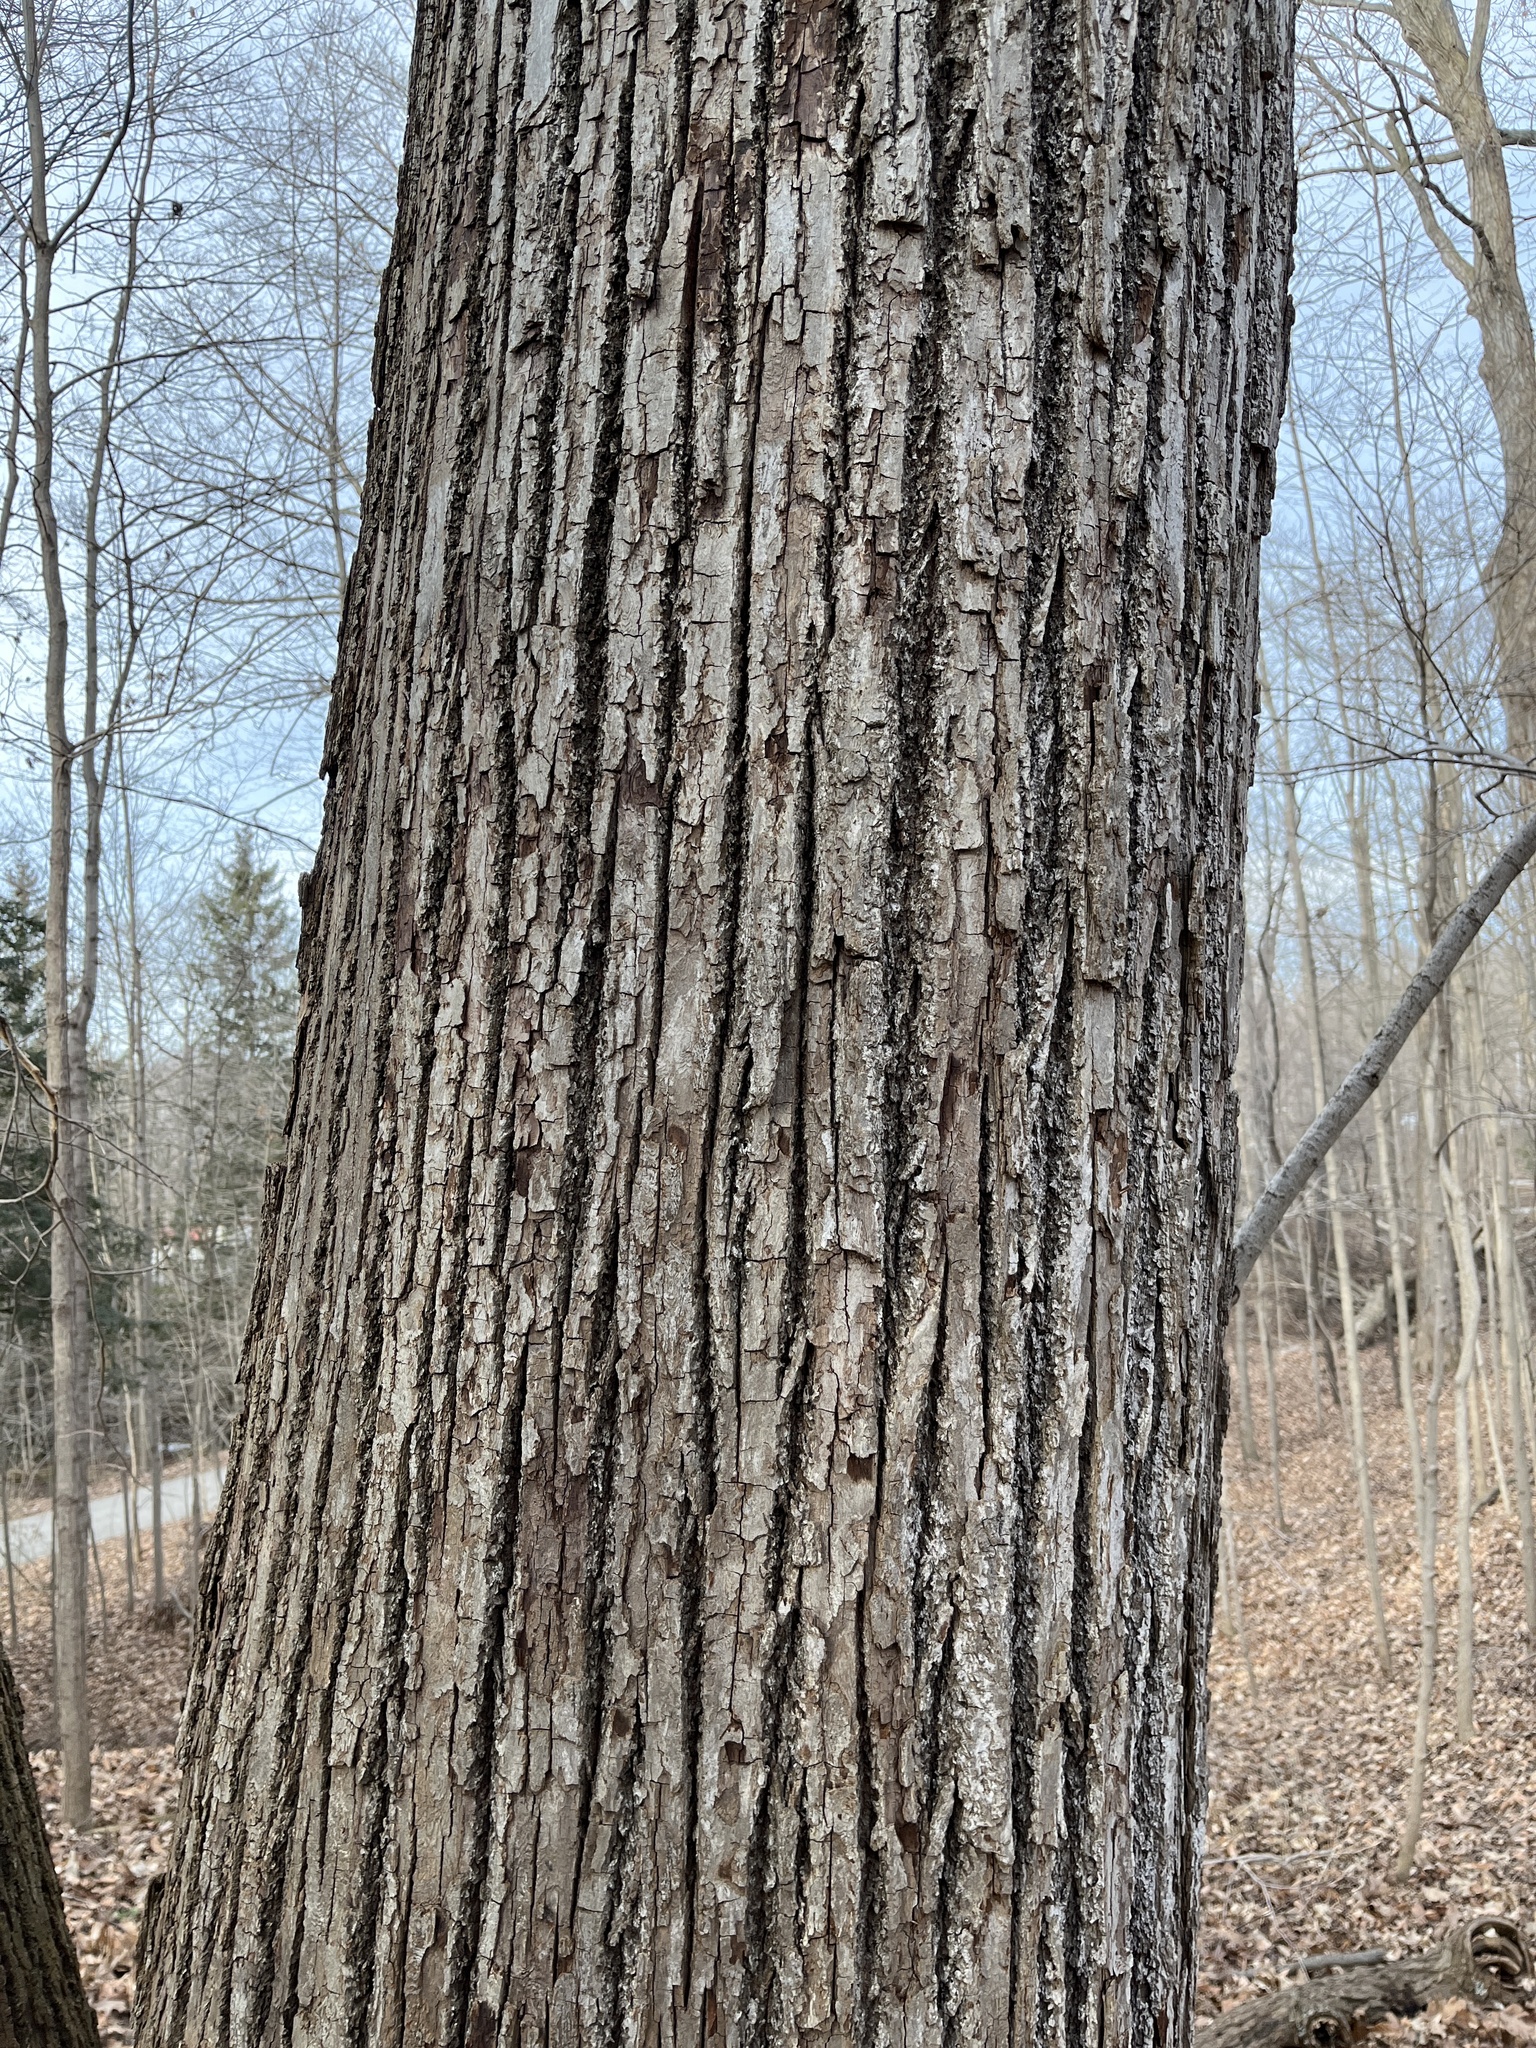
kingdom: Plantae
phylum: Tracheophyta
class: Magnoliopsida
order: Malvales
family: Malvaceae
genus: Tilia
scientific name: Tilia americana
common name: Basswood
